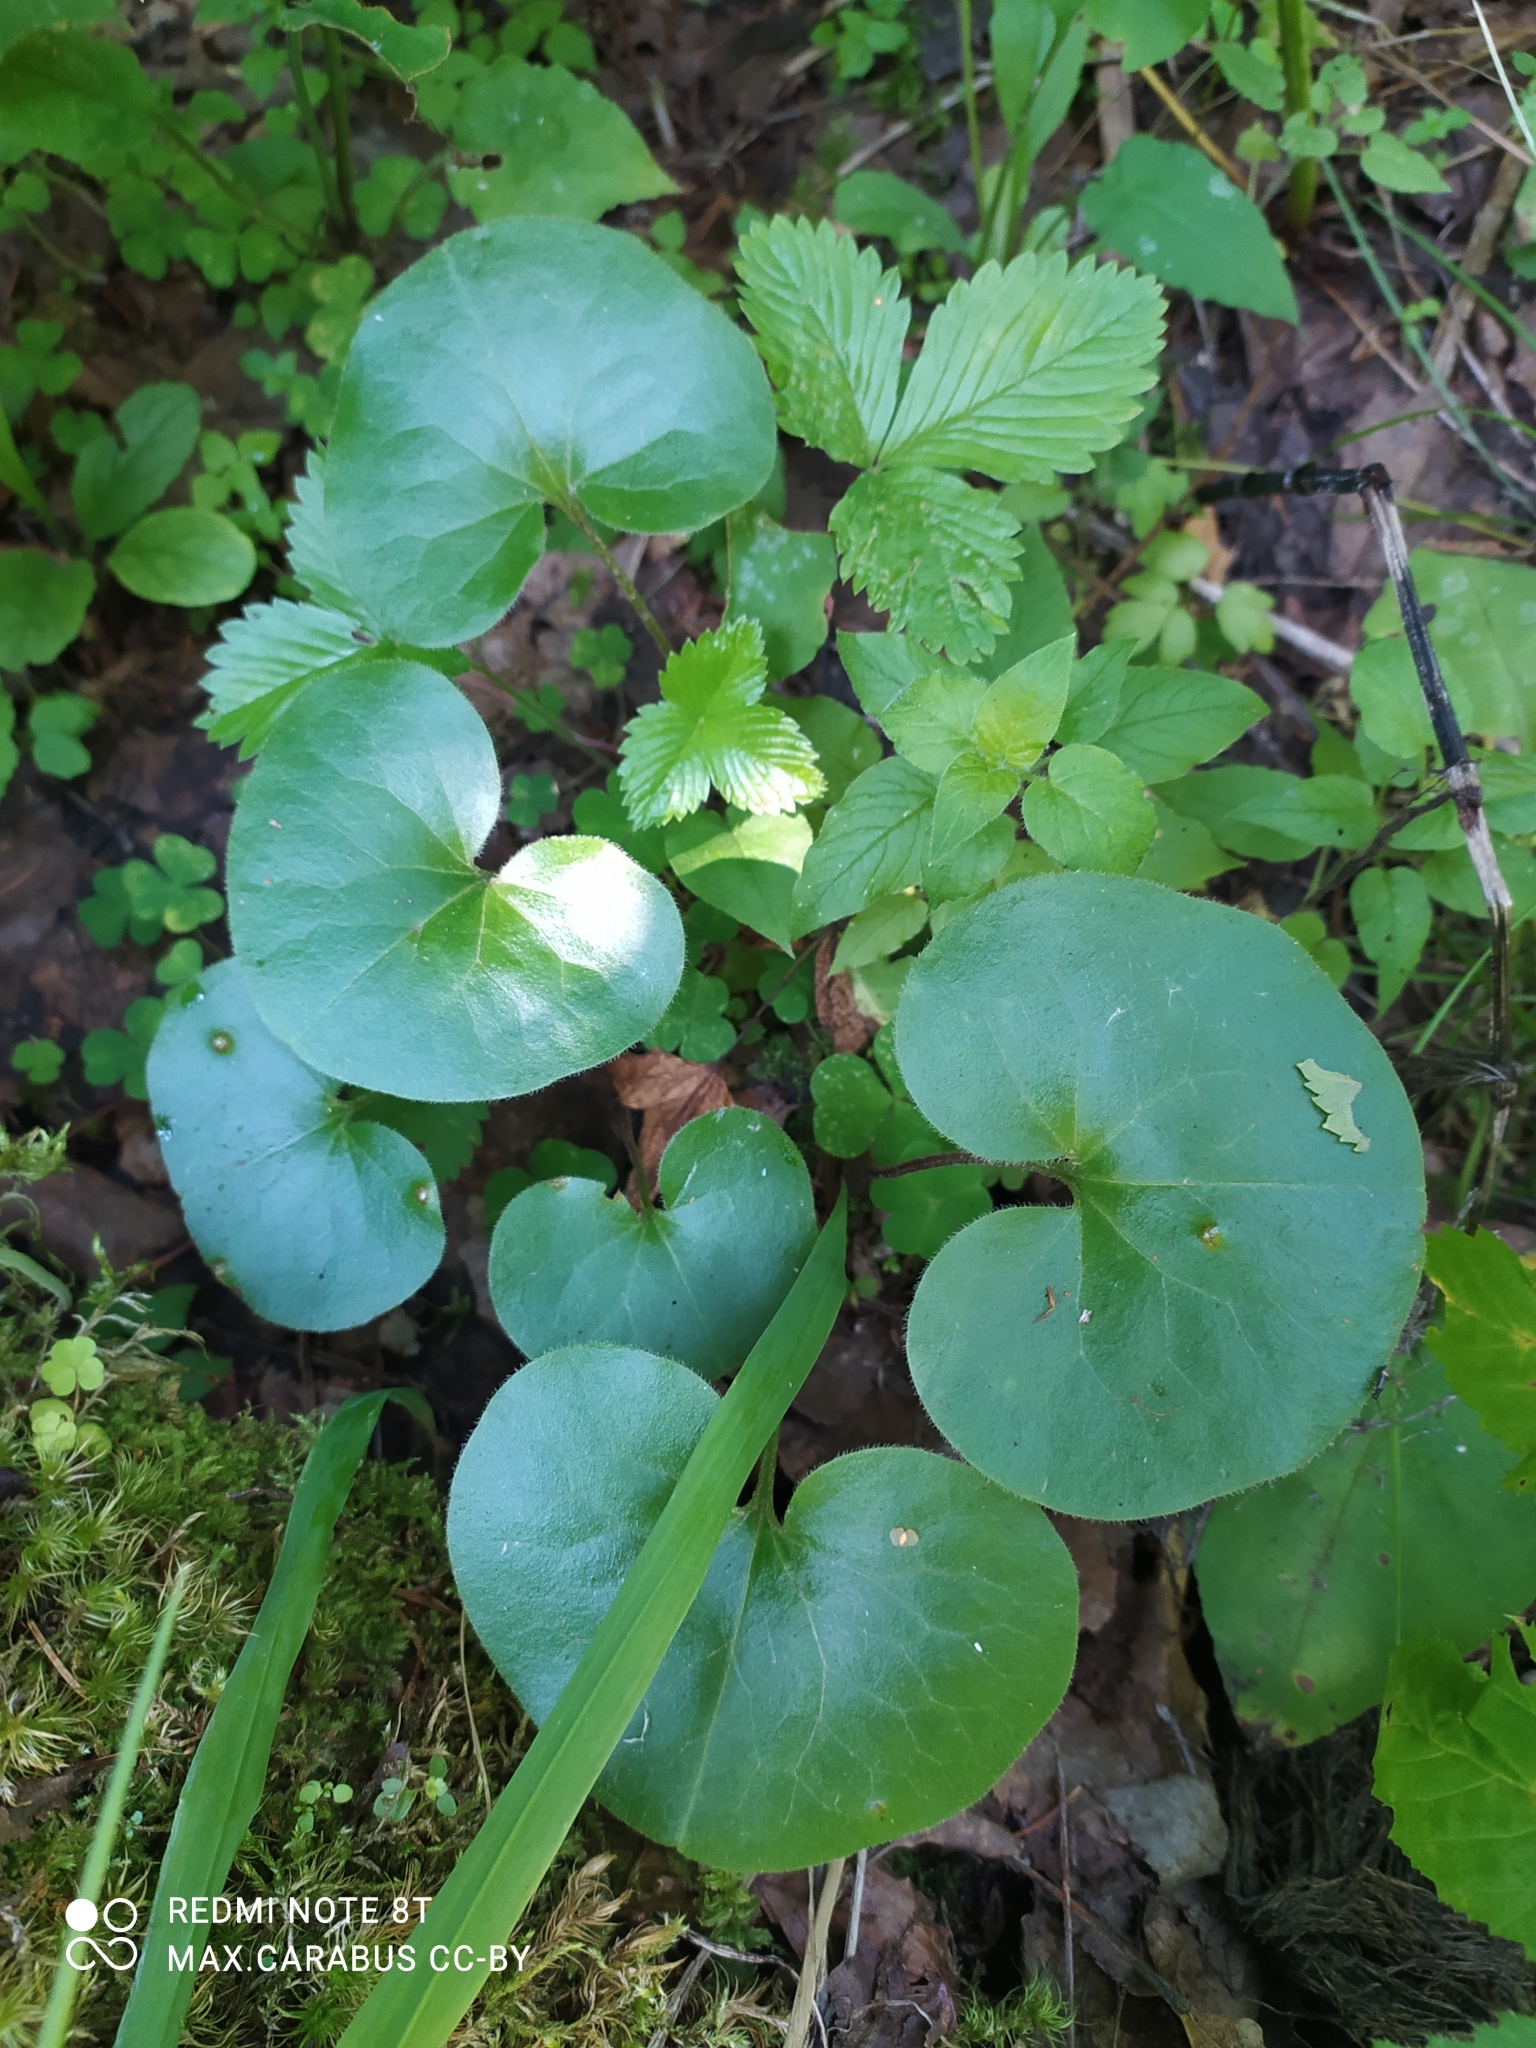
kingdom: Plantae
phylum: Tracheophyta
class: Magnoliopsida
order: Piperales
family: Aristolochiaceae
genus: Asarum
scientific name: Asarum europaeum
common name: Asarabacca
